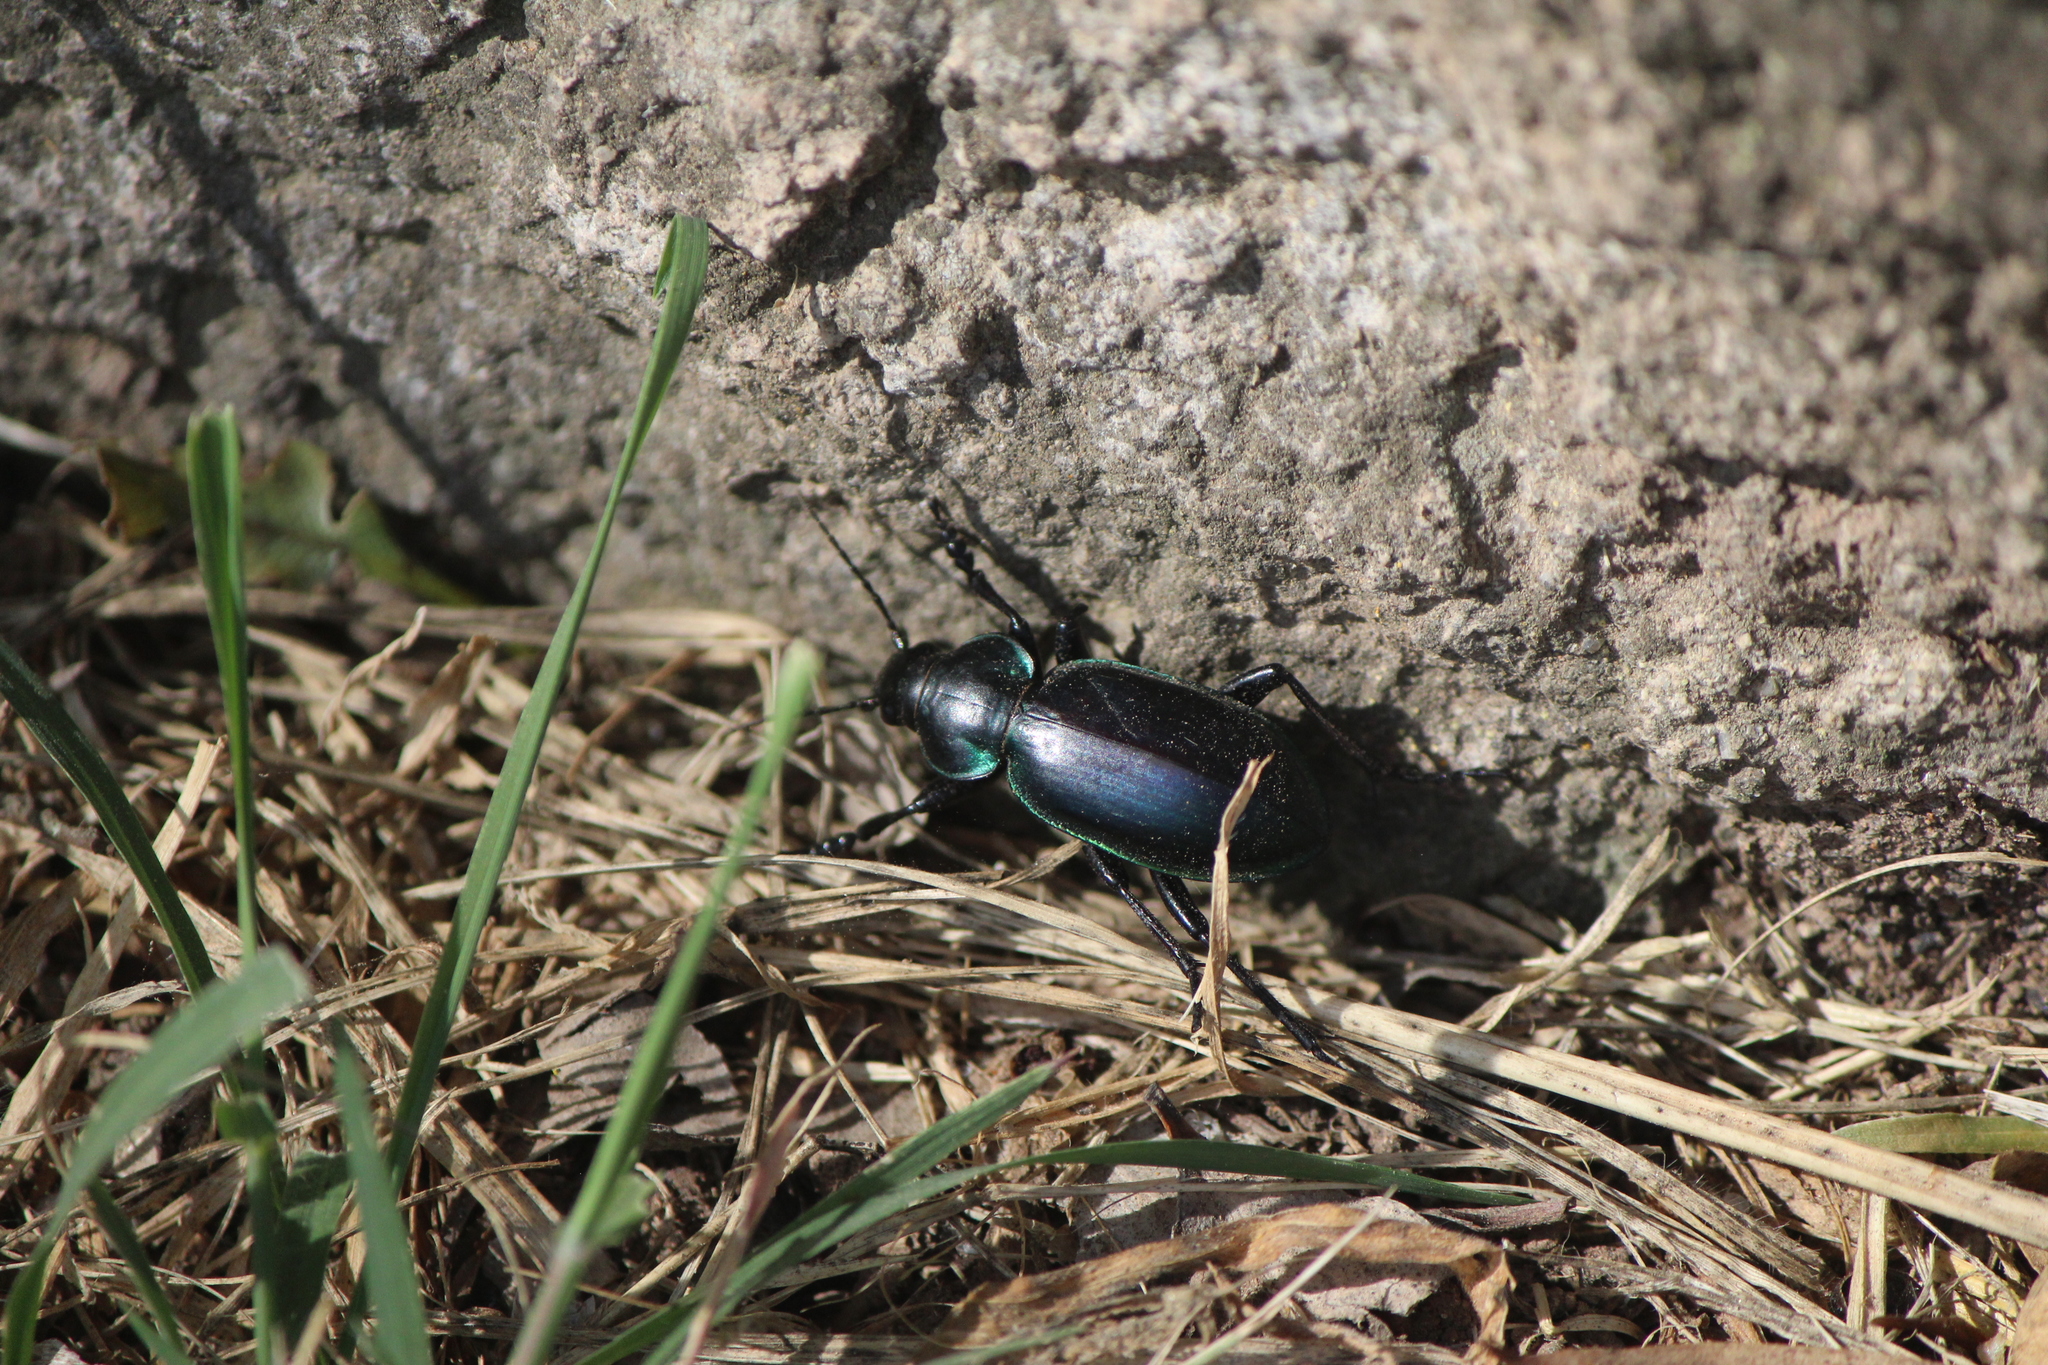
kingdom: Animalia
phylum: Arthropoda
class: Insecta
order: Coleoptera
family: Carabidae
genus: Calosoma
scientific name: Calosoma atrovirens
